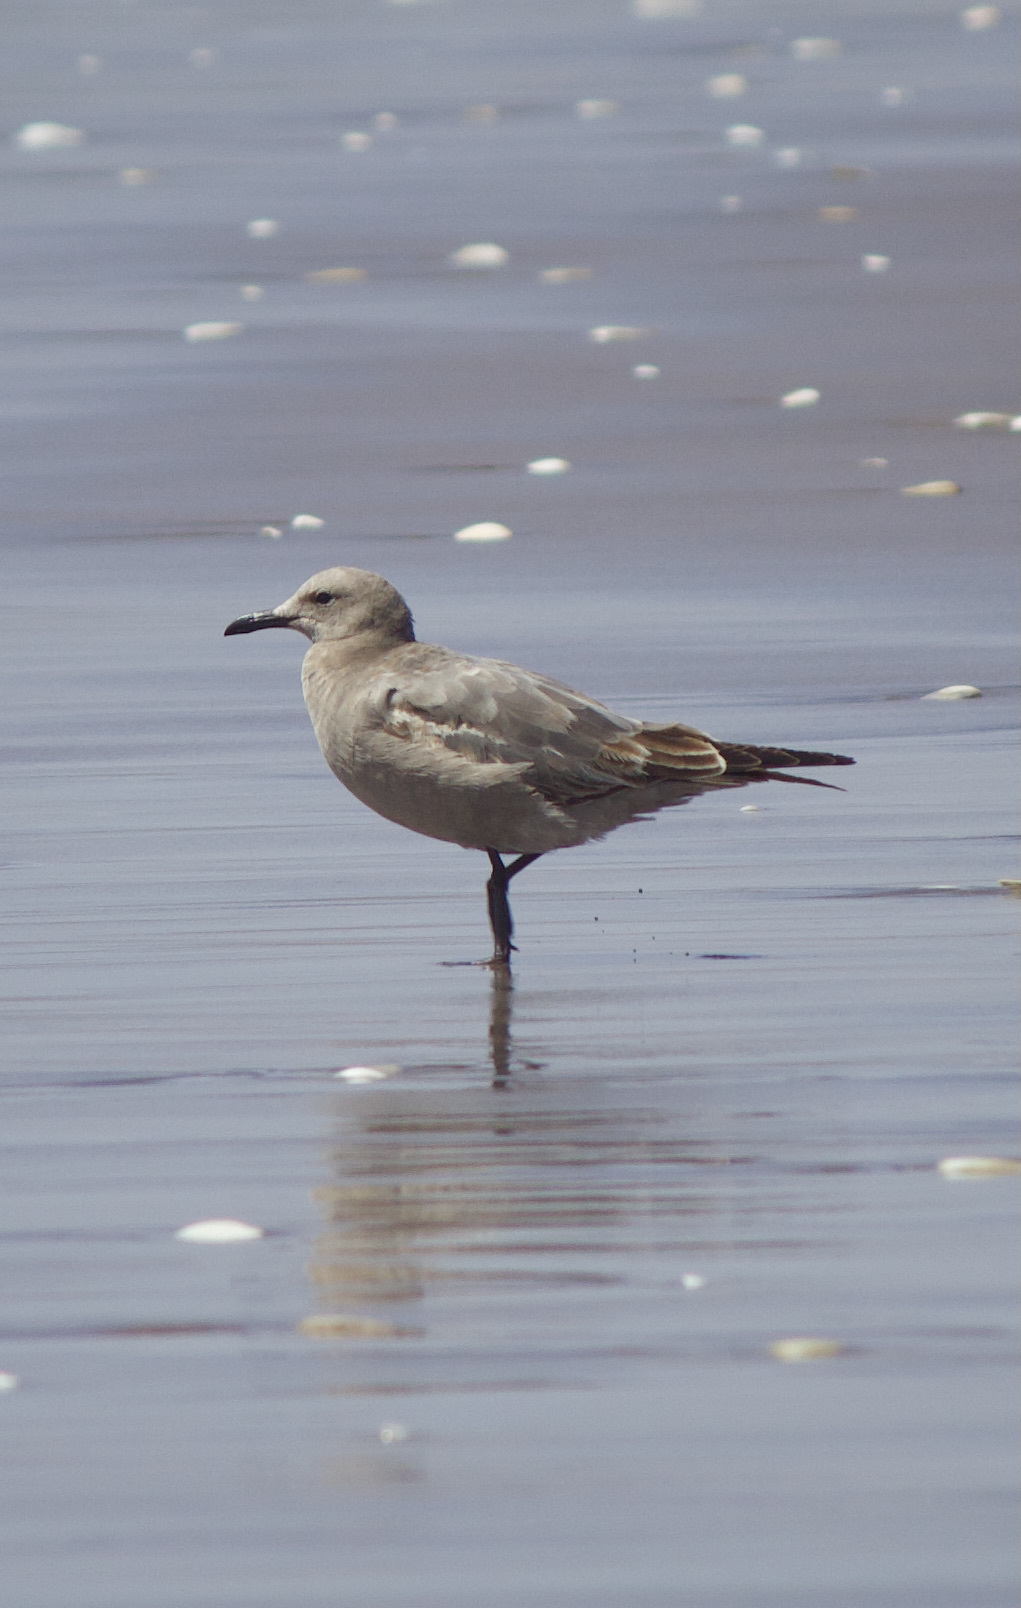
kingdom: Animalia
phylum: Chordata
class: Aves
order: Charadriiformes
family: Laridae
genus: Leucophaeus
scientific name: Leucophaeus modestus
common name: Gray gull
